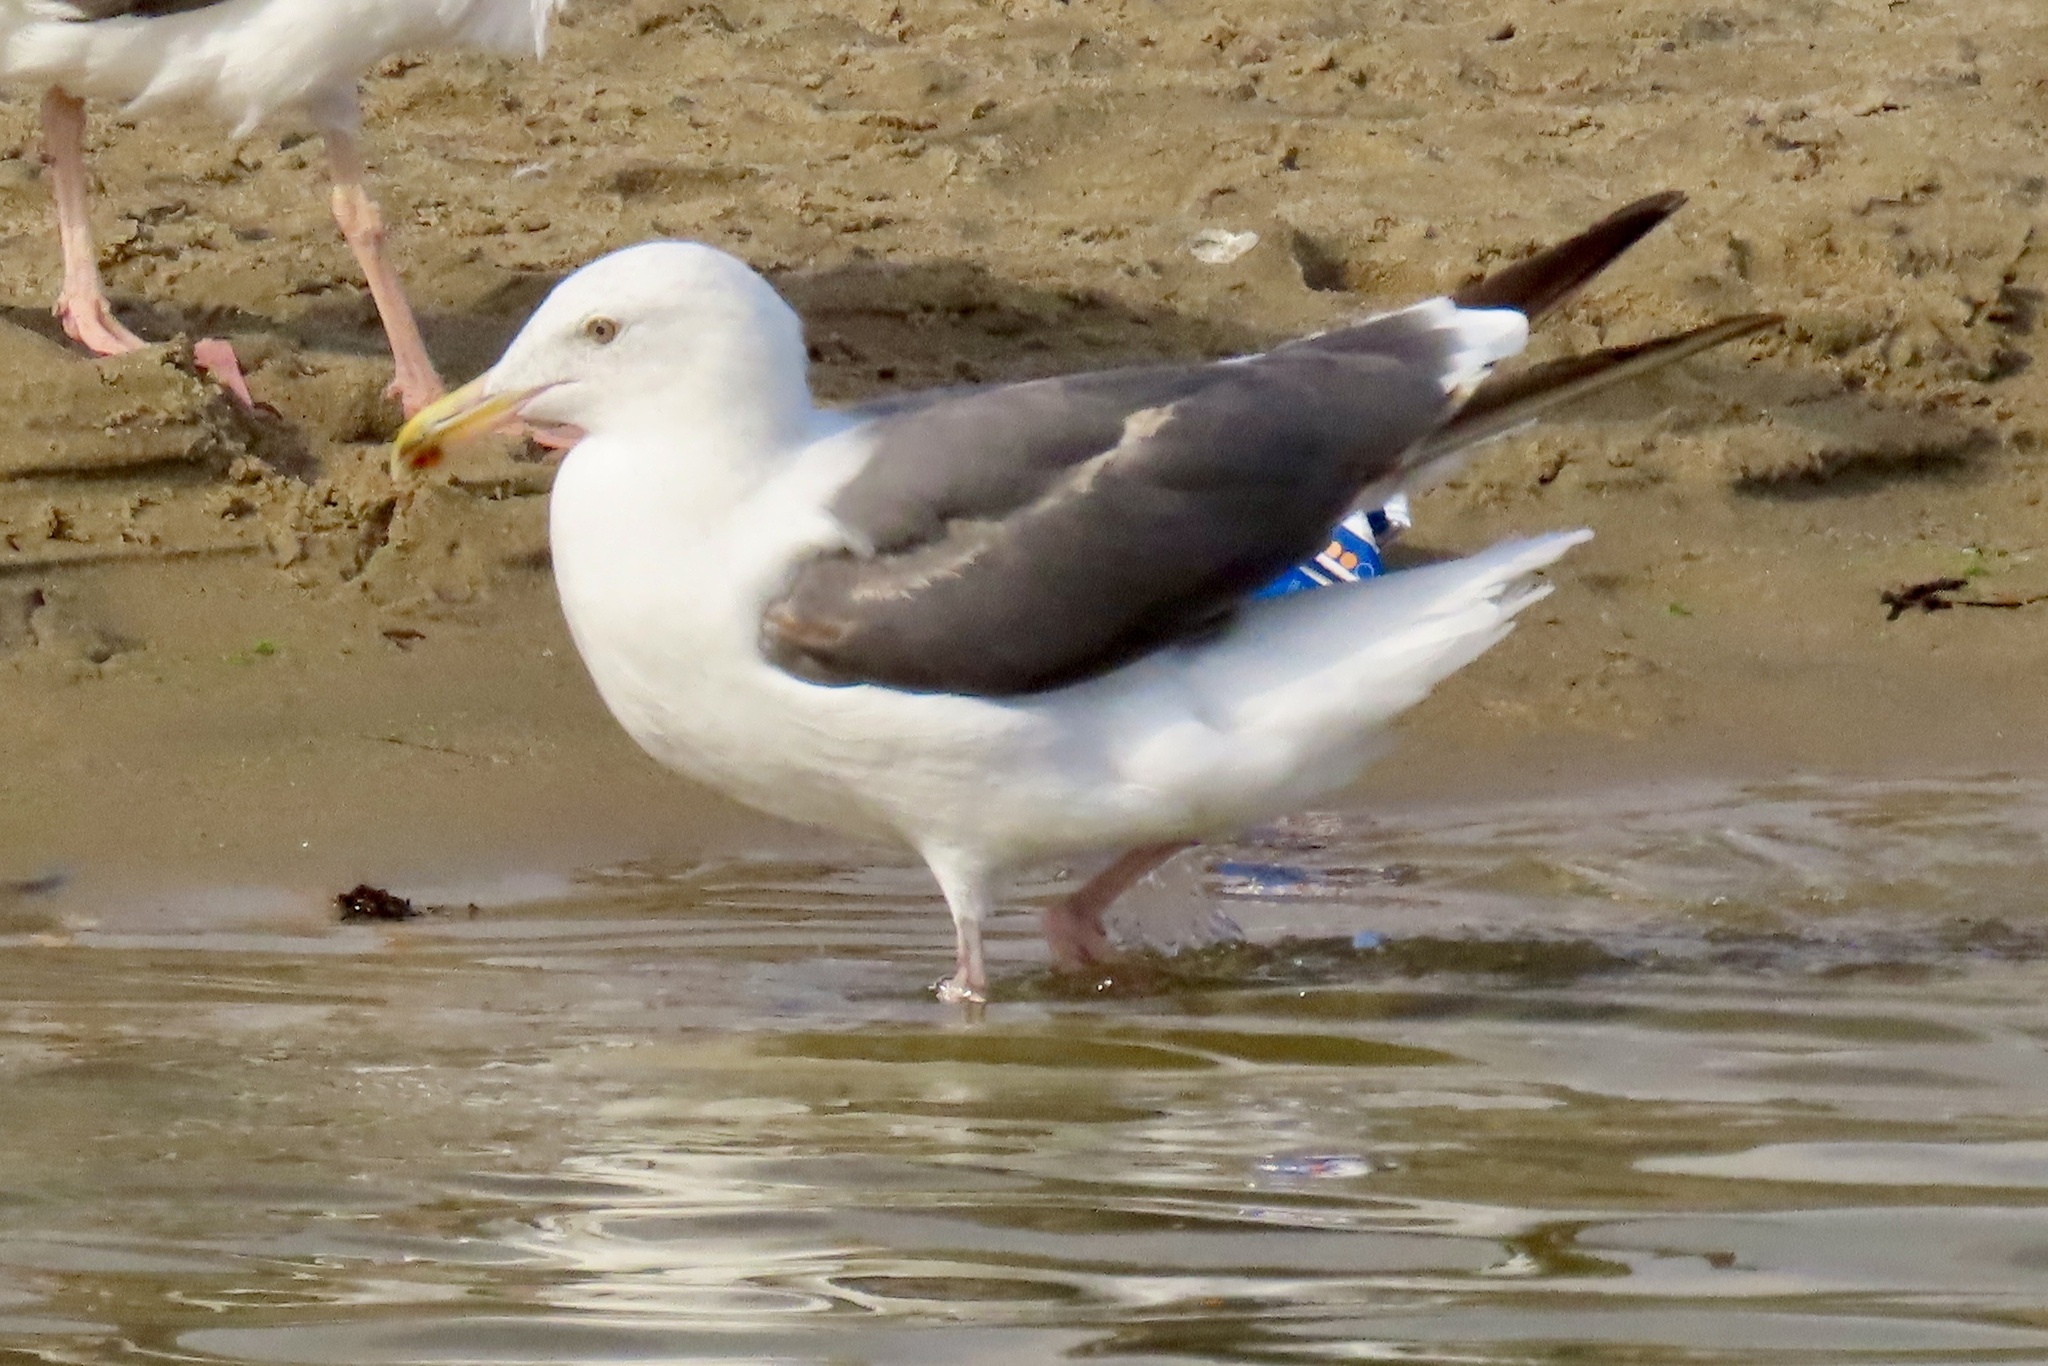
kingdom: Animalia
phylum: Chordata
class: Aves
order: Charadriiformes
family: Laridae
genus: Larus
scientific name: Larus occidentalis
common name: Western gull
